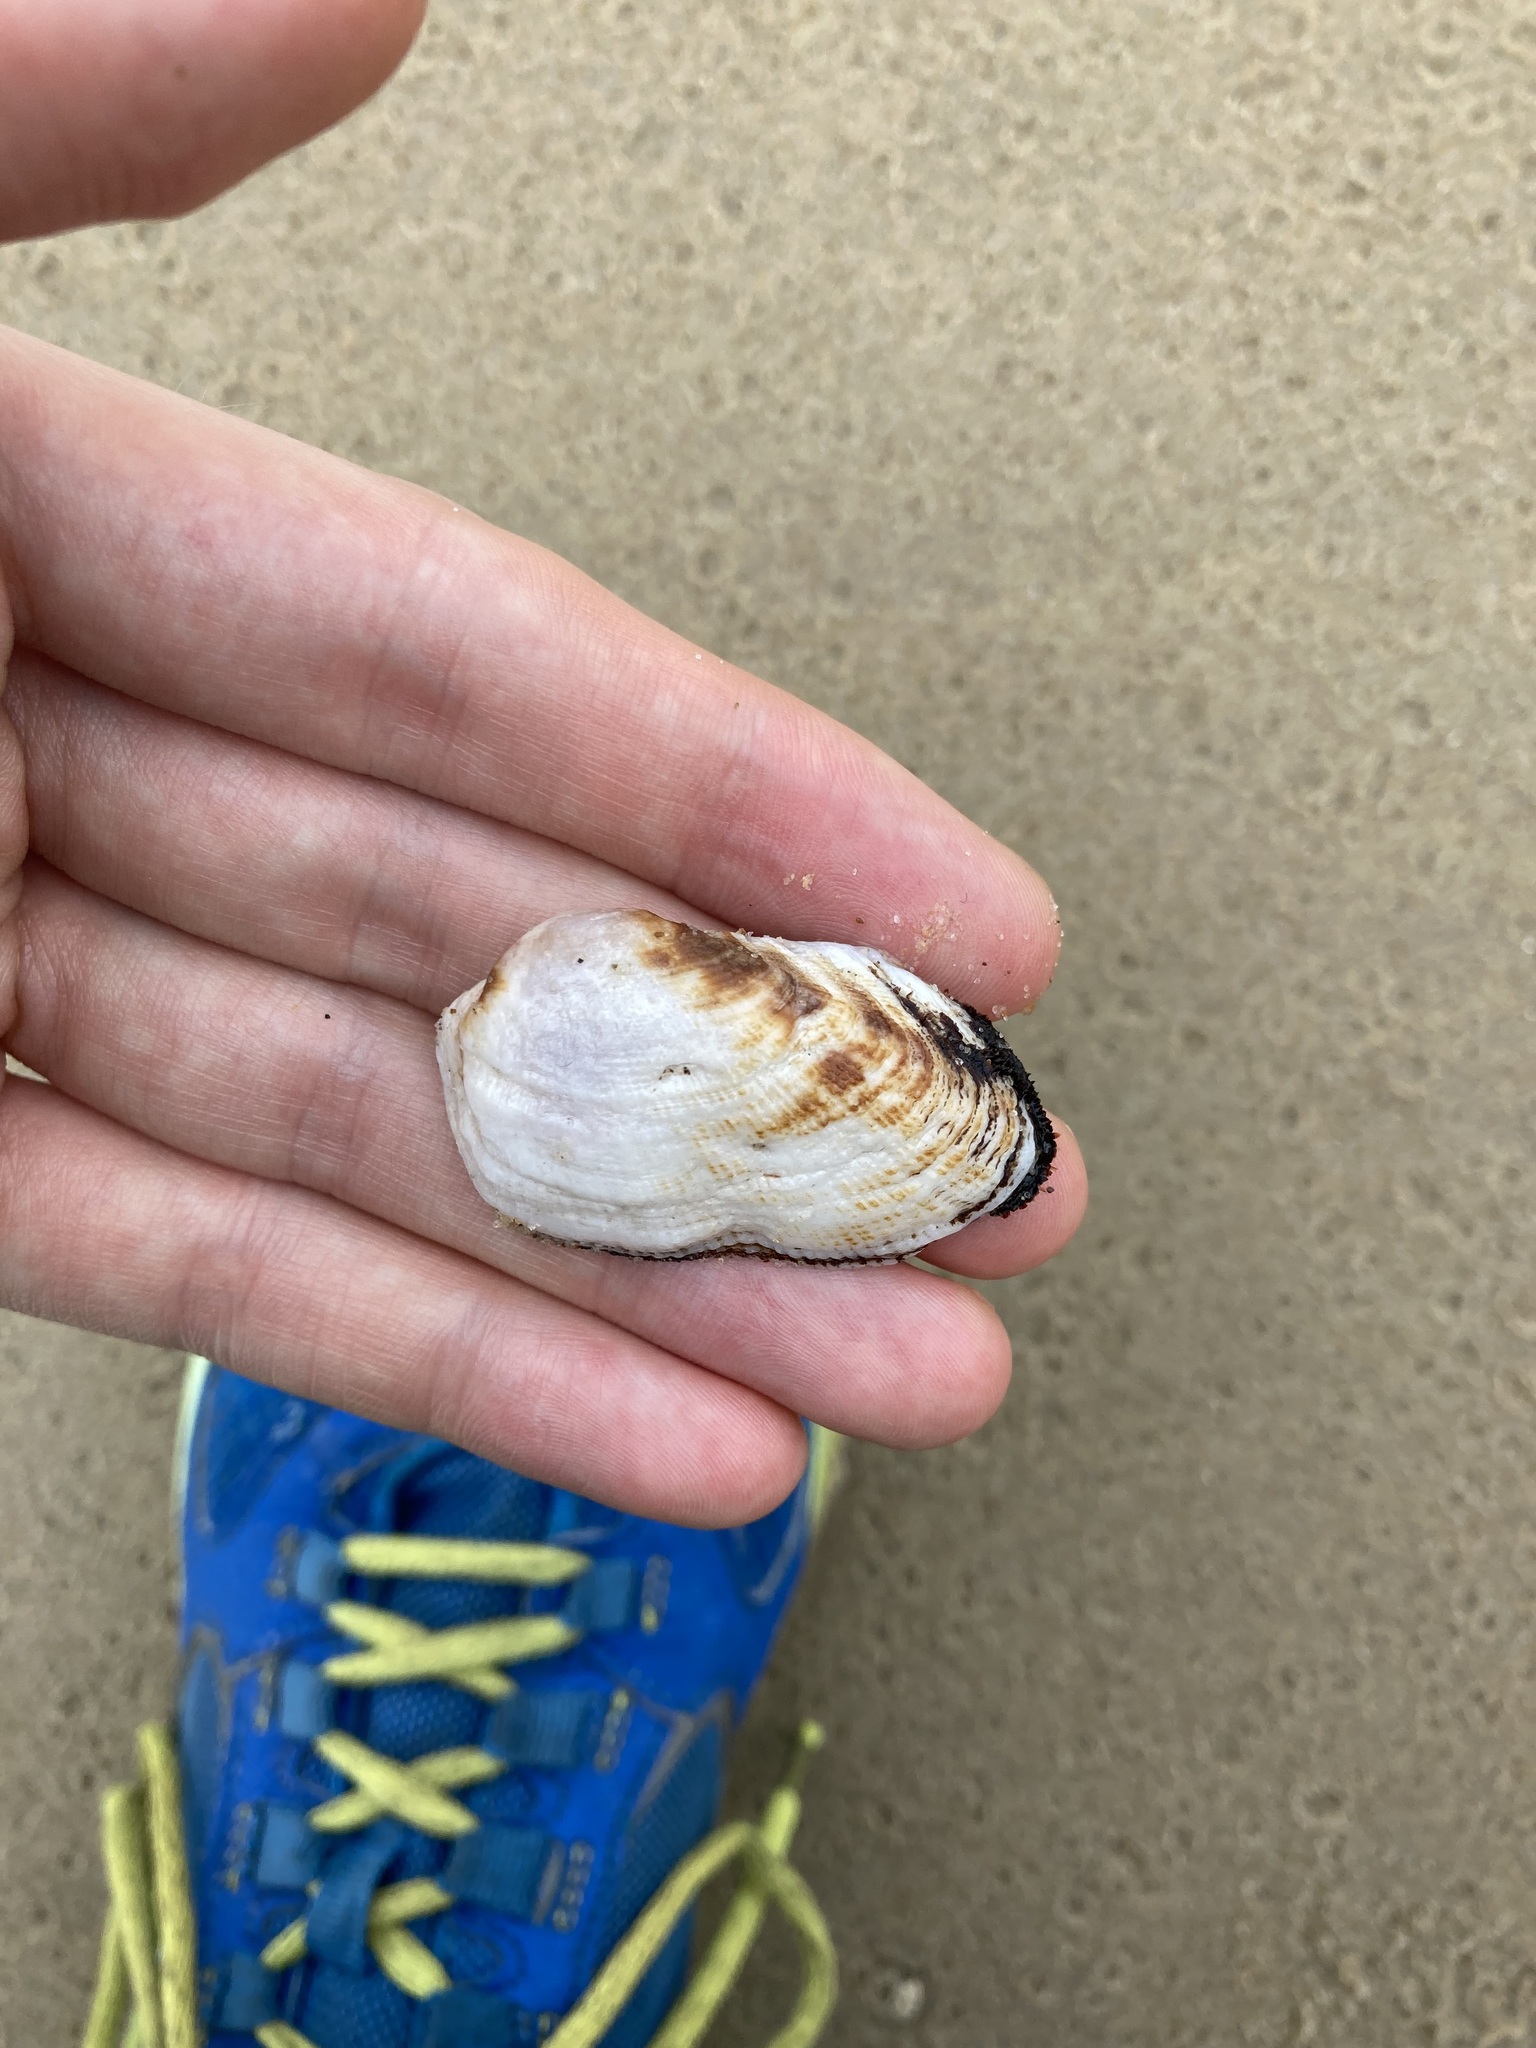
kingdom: Animalia
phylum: Mollusca
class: Bivalvia
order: Arcida
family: Arcidae
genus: Barbatia
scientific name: Barbatia pistachia
